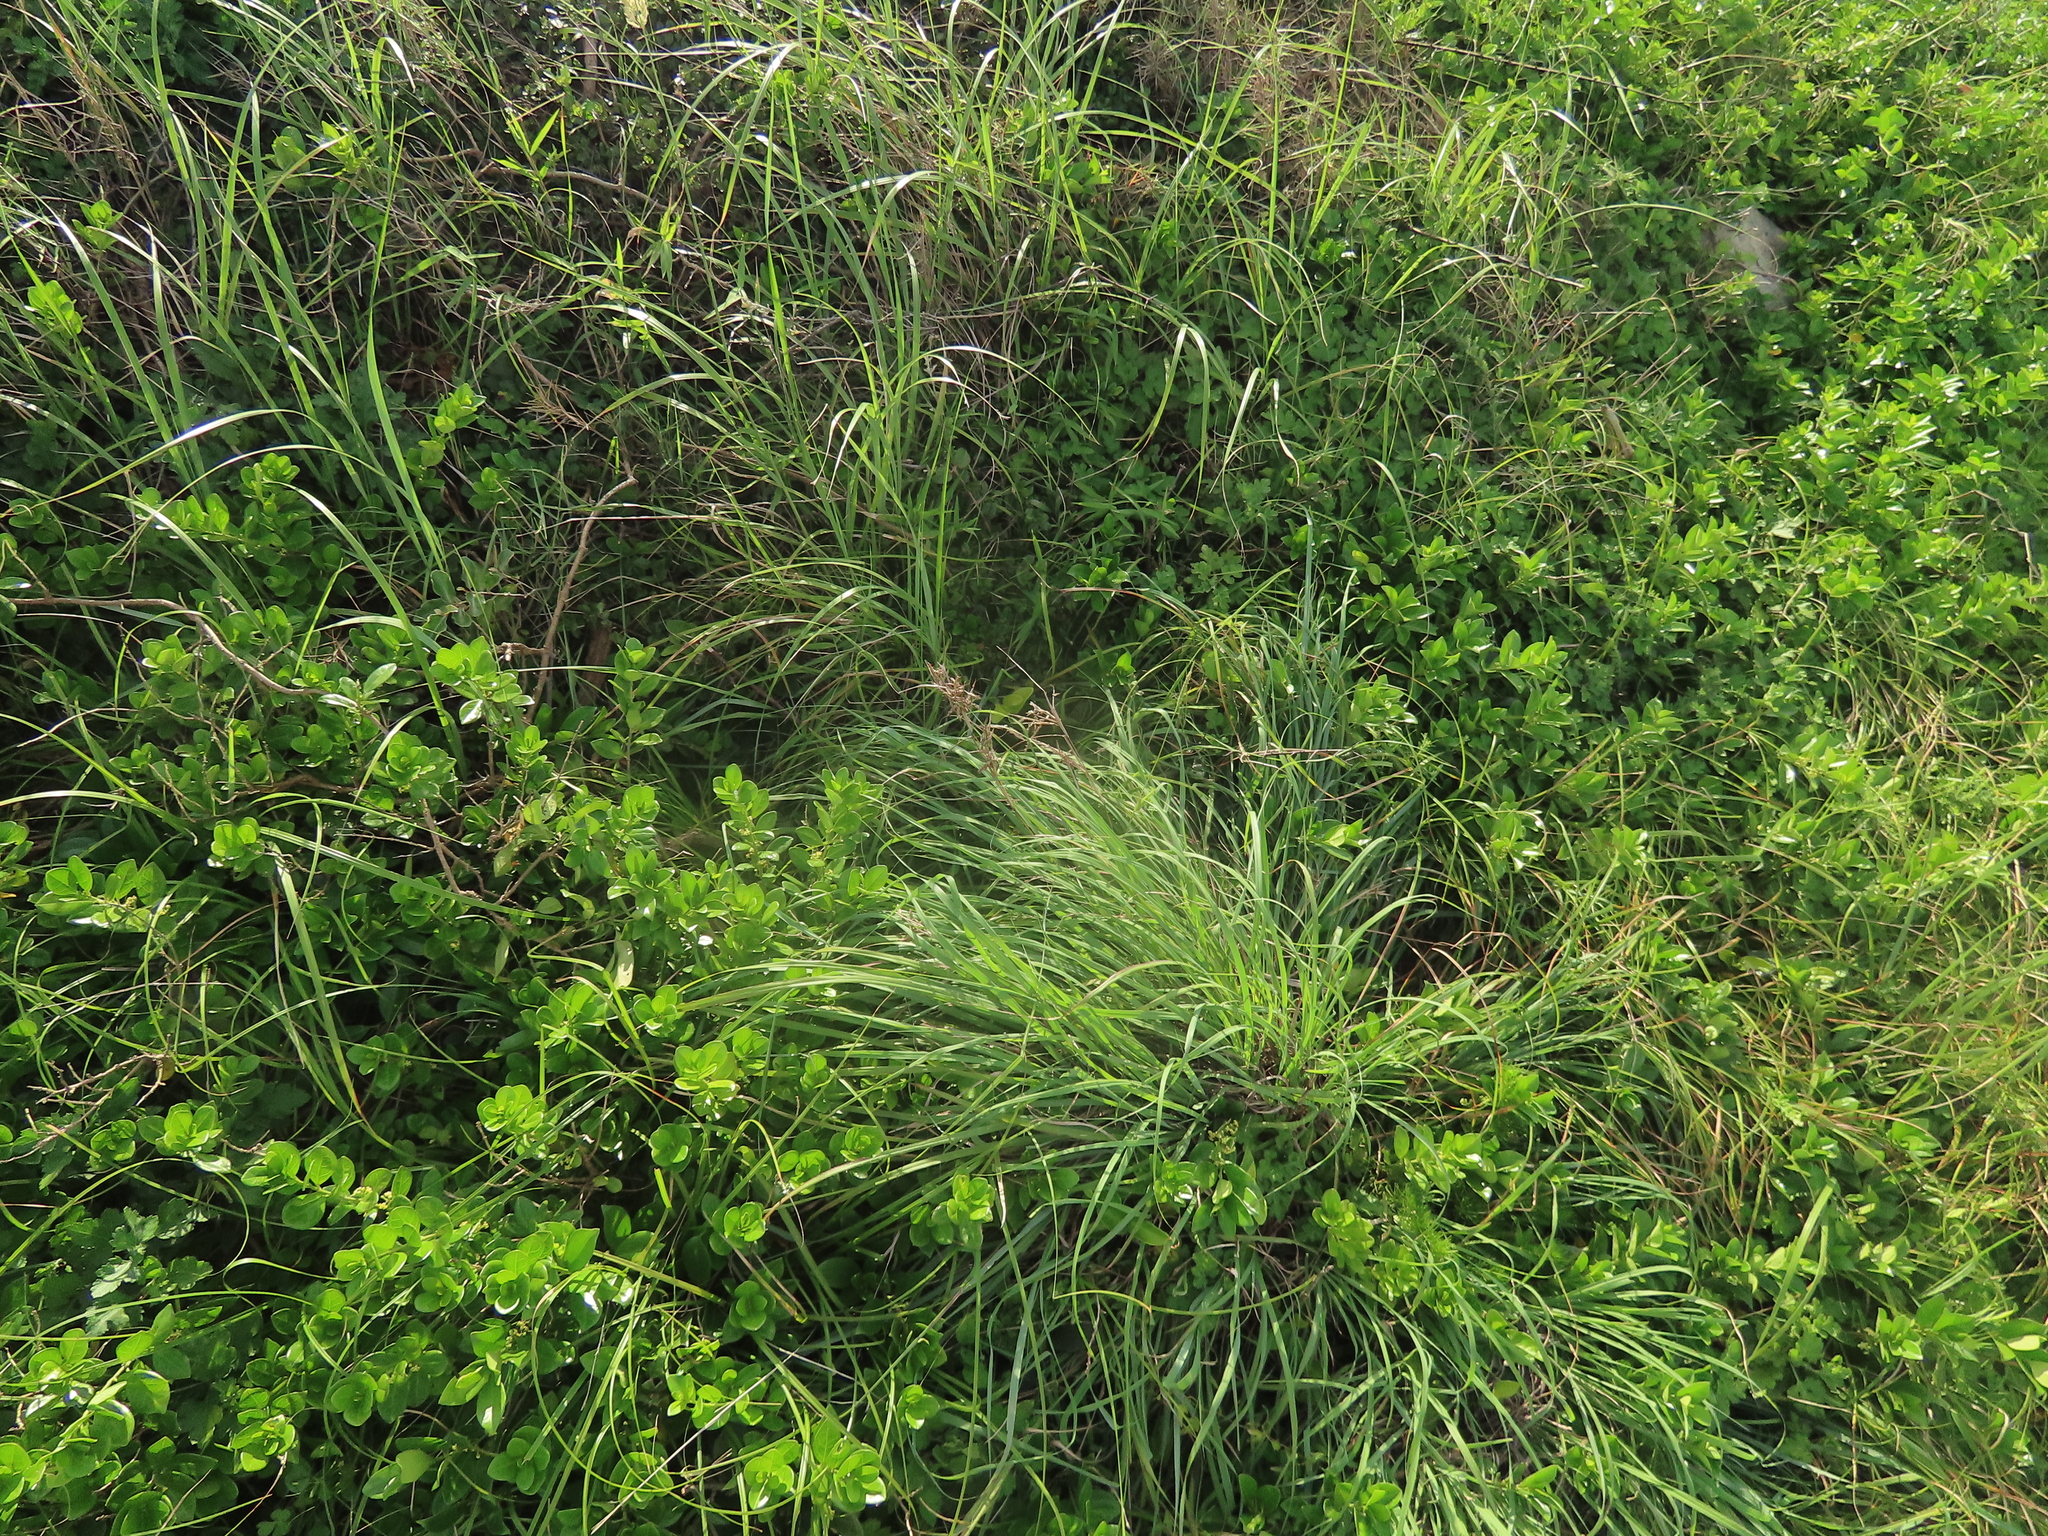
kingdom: Plantae
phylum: Tracheophyta
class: Liliopsida
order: Poales
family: Poaceae
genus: Cymbopogon
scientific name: Cymbopogon tortilis
